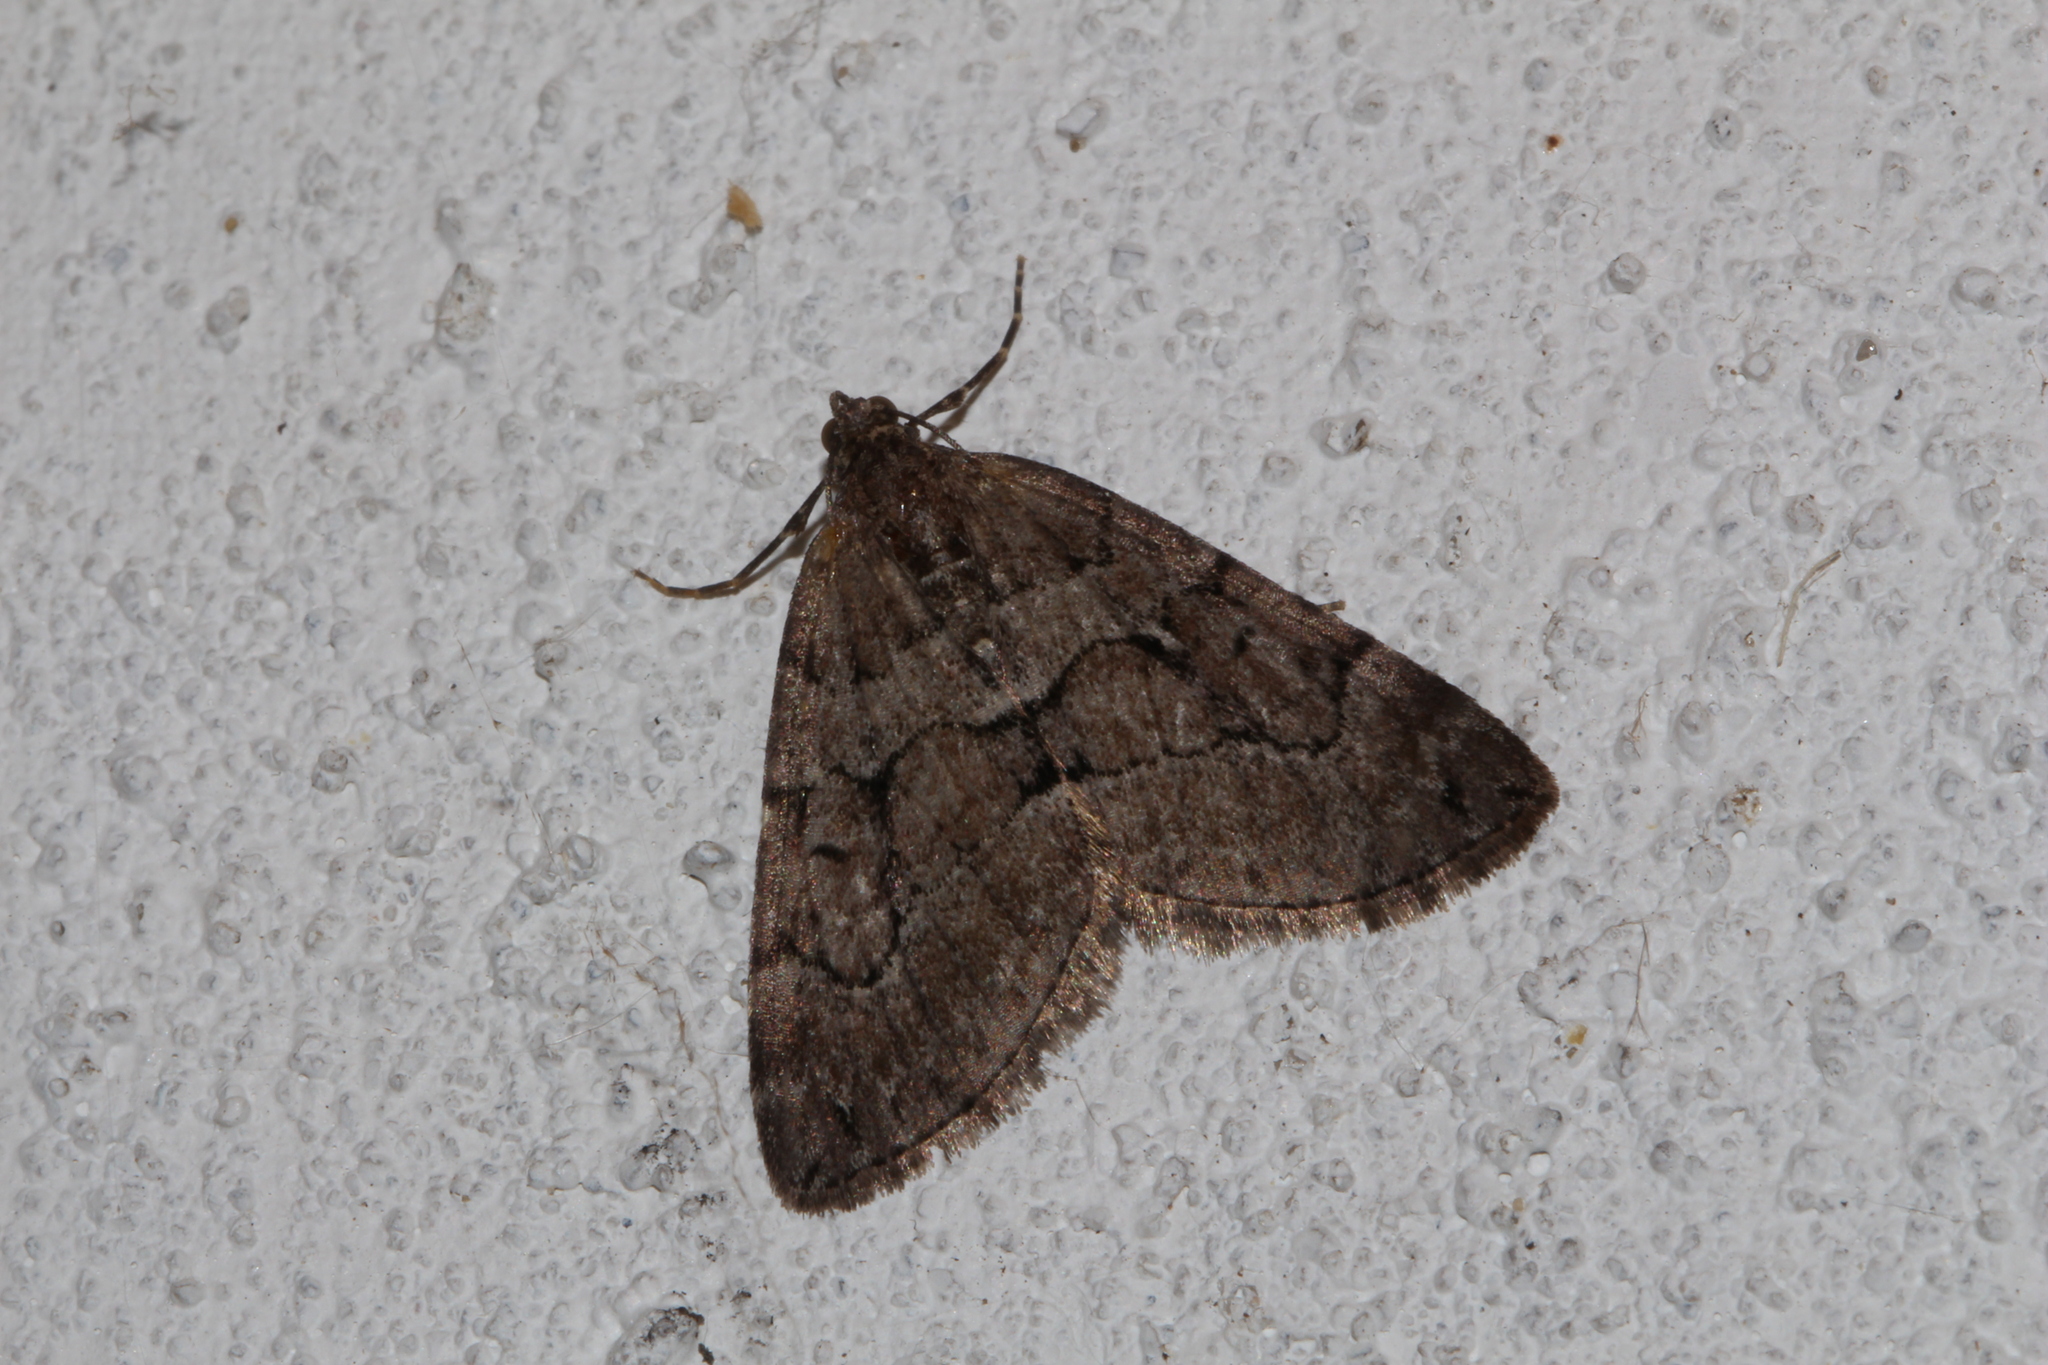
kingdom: Animalia
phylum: Arthropoda
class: Insecta
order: Lepidoptera
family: Geometridae
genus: Thera
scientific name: Thera cognata
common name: Chestnut-coloured carpet
